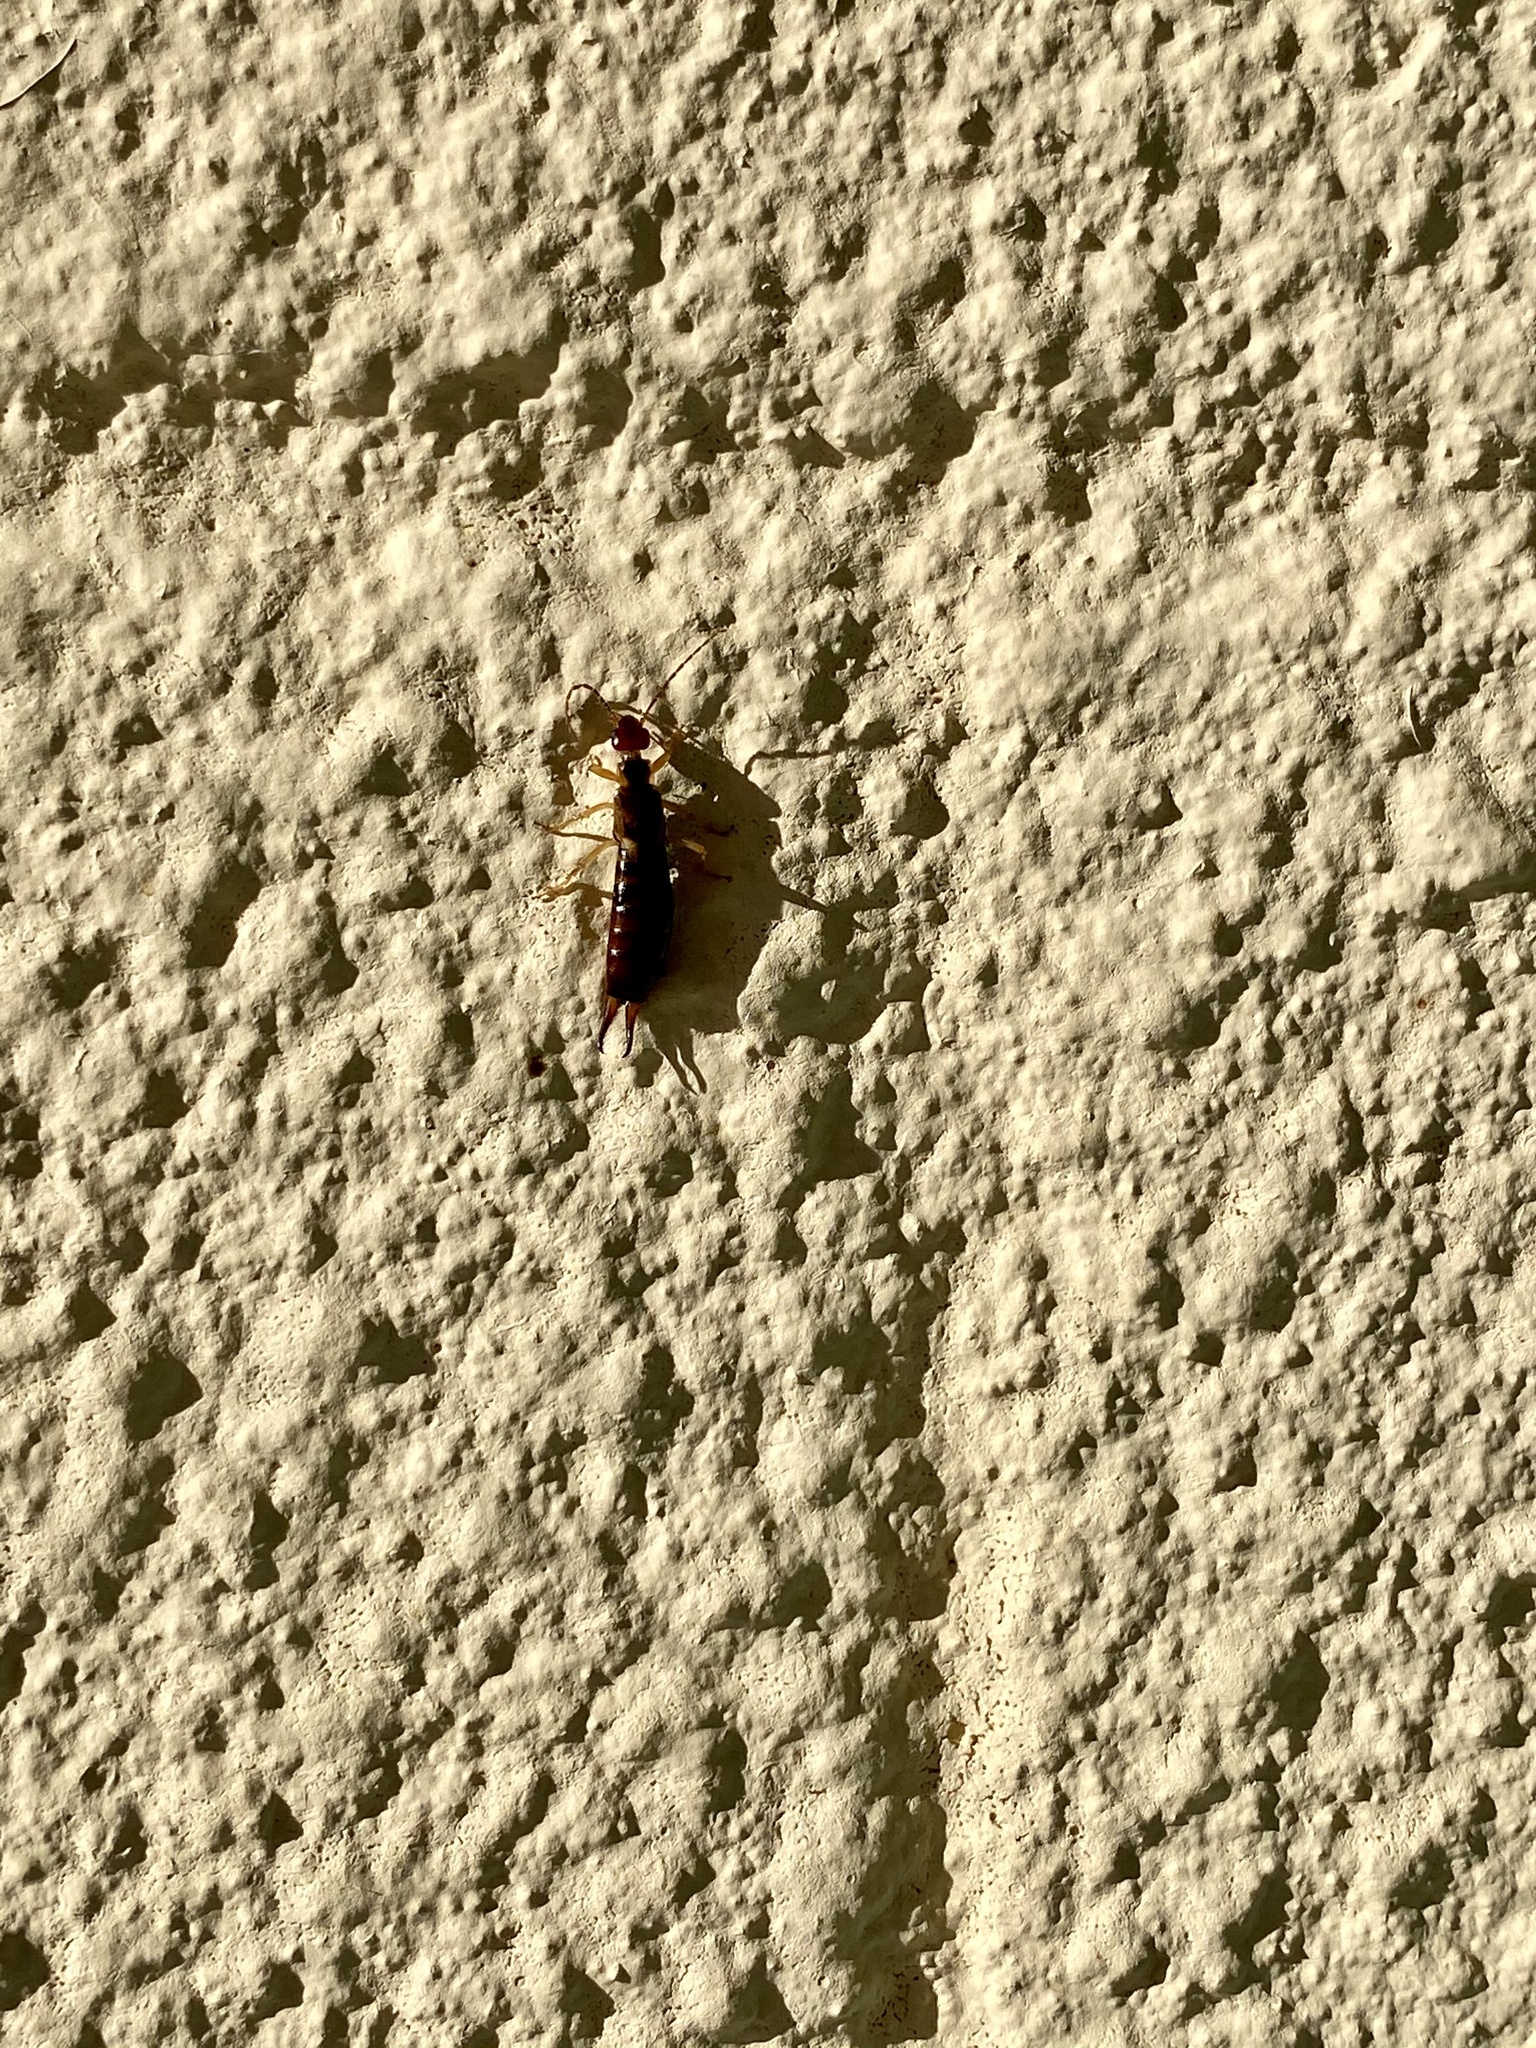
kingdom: Animalia
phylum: Arthropoda
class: Insecta
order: Dermaptera
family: Forficulidae
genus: Forficula
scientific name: Forficula
